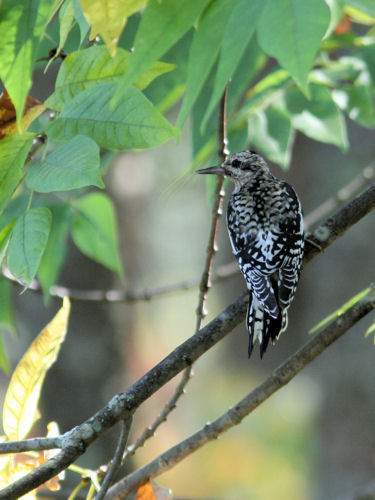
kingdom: Animalia
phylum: Chordata
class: Aves
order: Piciformes
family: Picidae
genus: Sphyrapicus
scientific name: Sphyrapicus varius
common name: Yellow-bellied sapsucker
